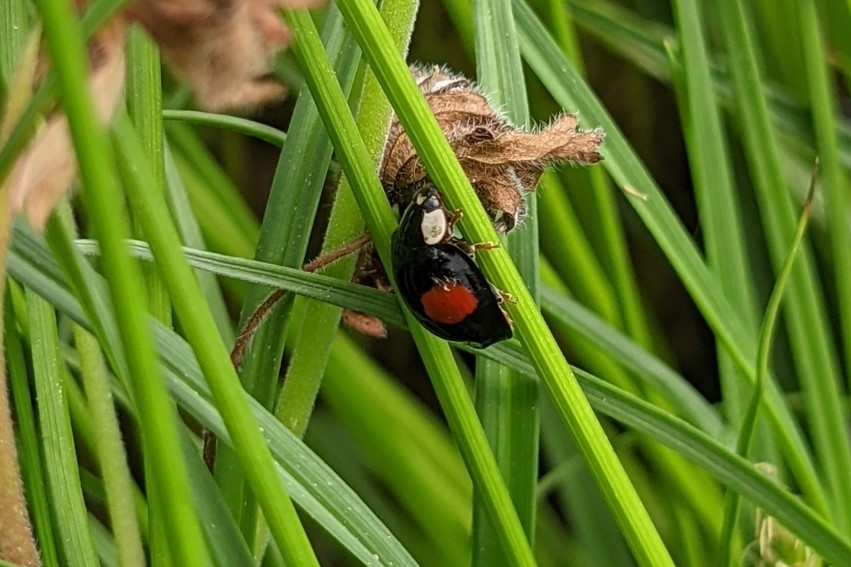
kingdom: Animalia
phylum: Arthropoda
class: Insecta
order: Coleoptera
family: Coccinellidae
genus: Harmonia
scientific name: Harmonia axyridis
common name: Harlequin ladybird
